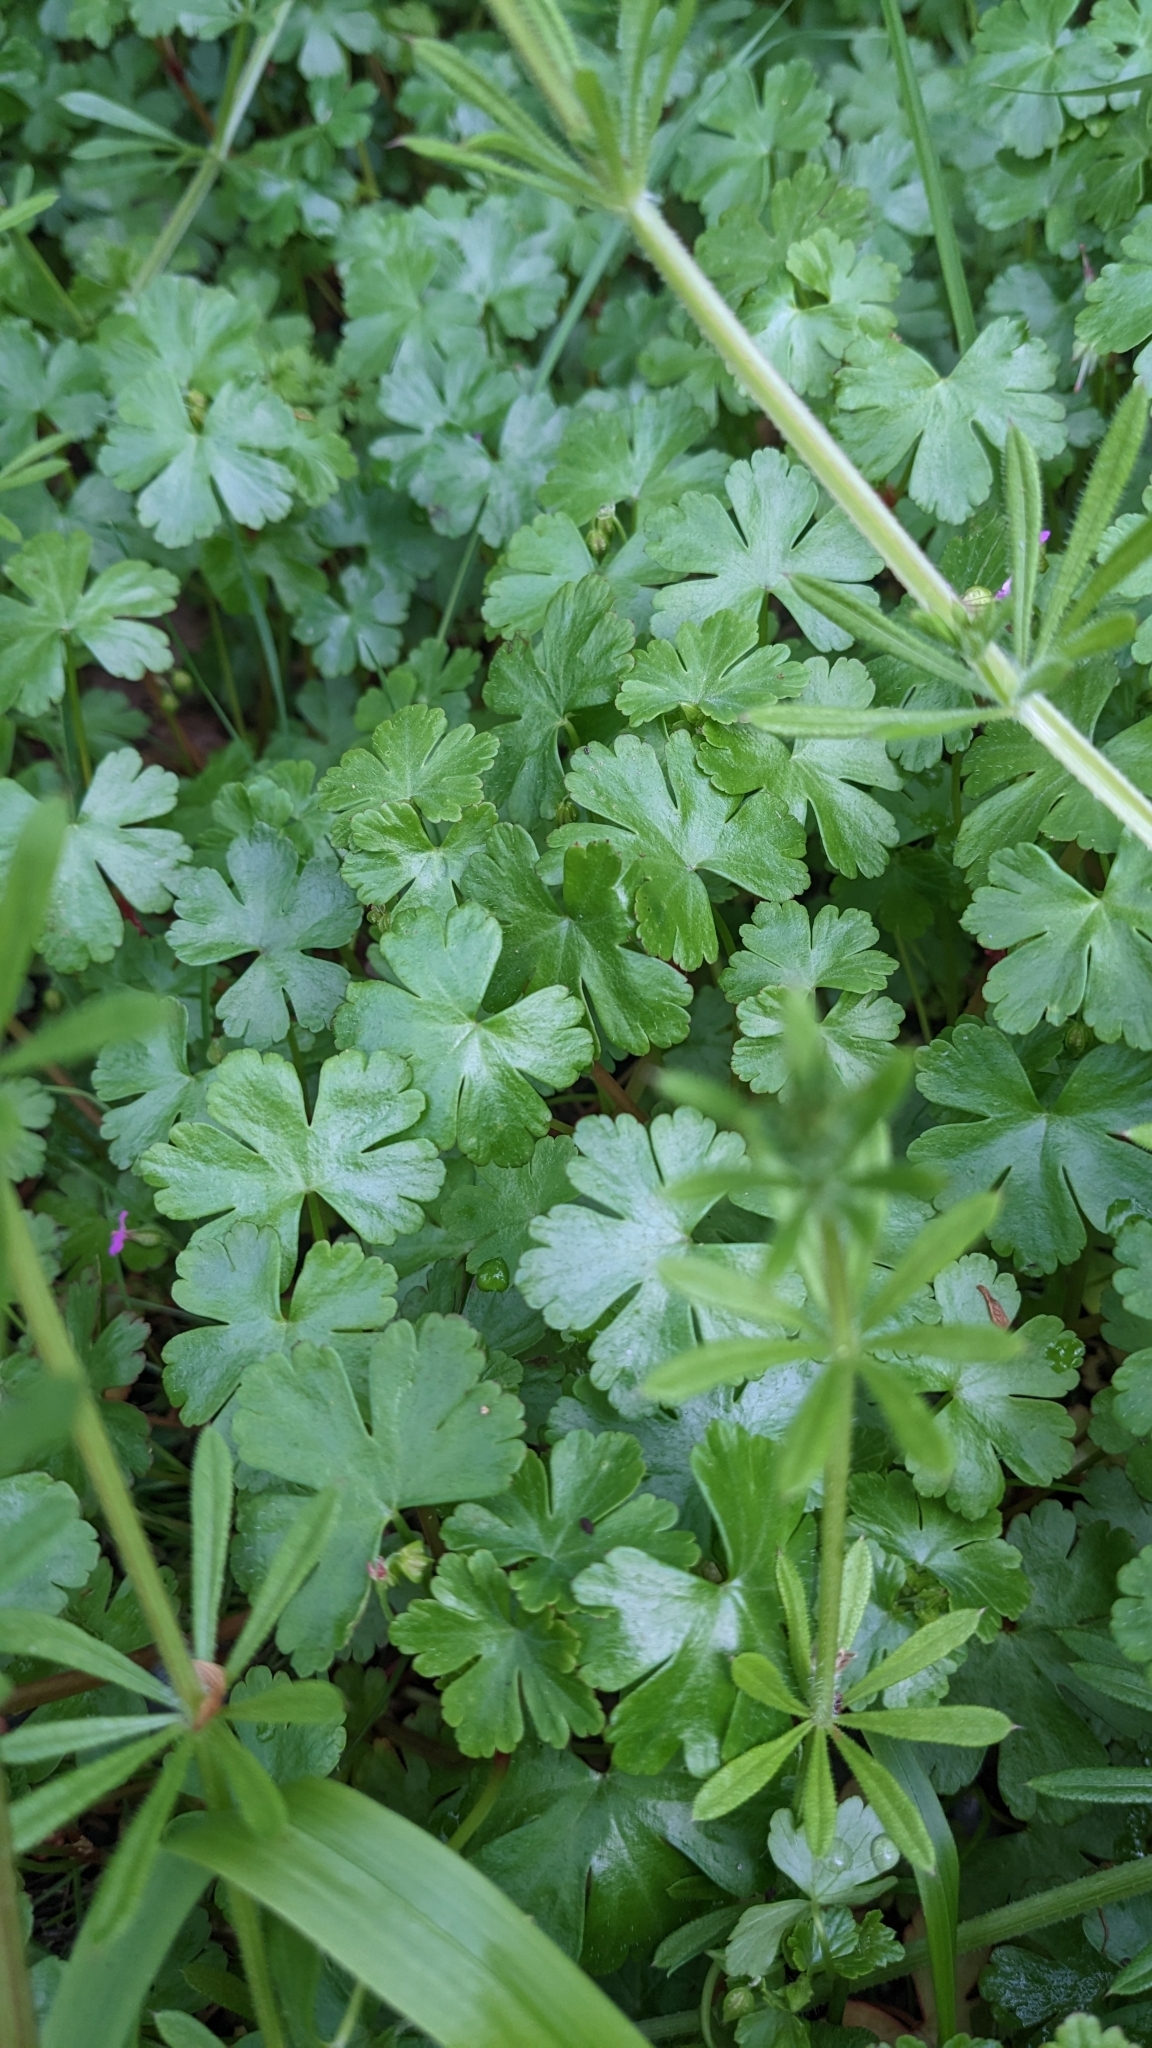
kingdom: Plantae
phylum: Tracheophyta
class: Magnoliopsida
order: Geraniales
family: Geraniaceae
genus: Geranium
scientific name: Geranium lucidum
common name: Shining crane's-bill
